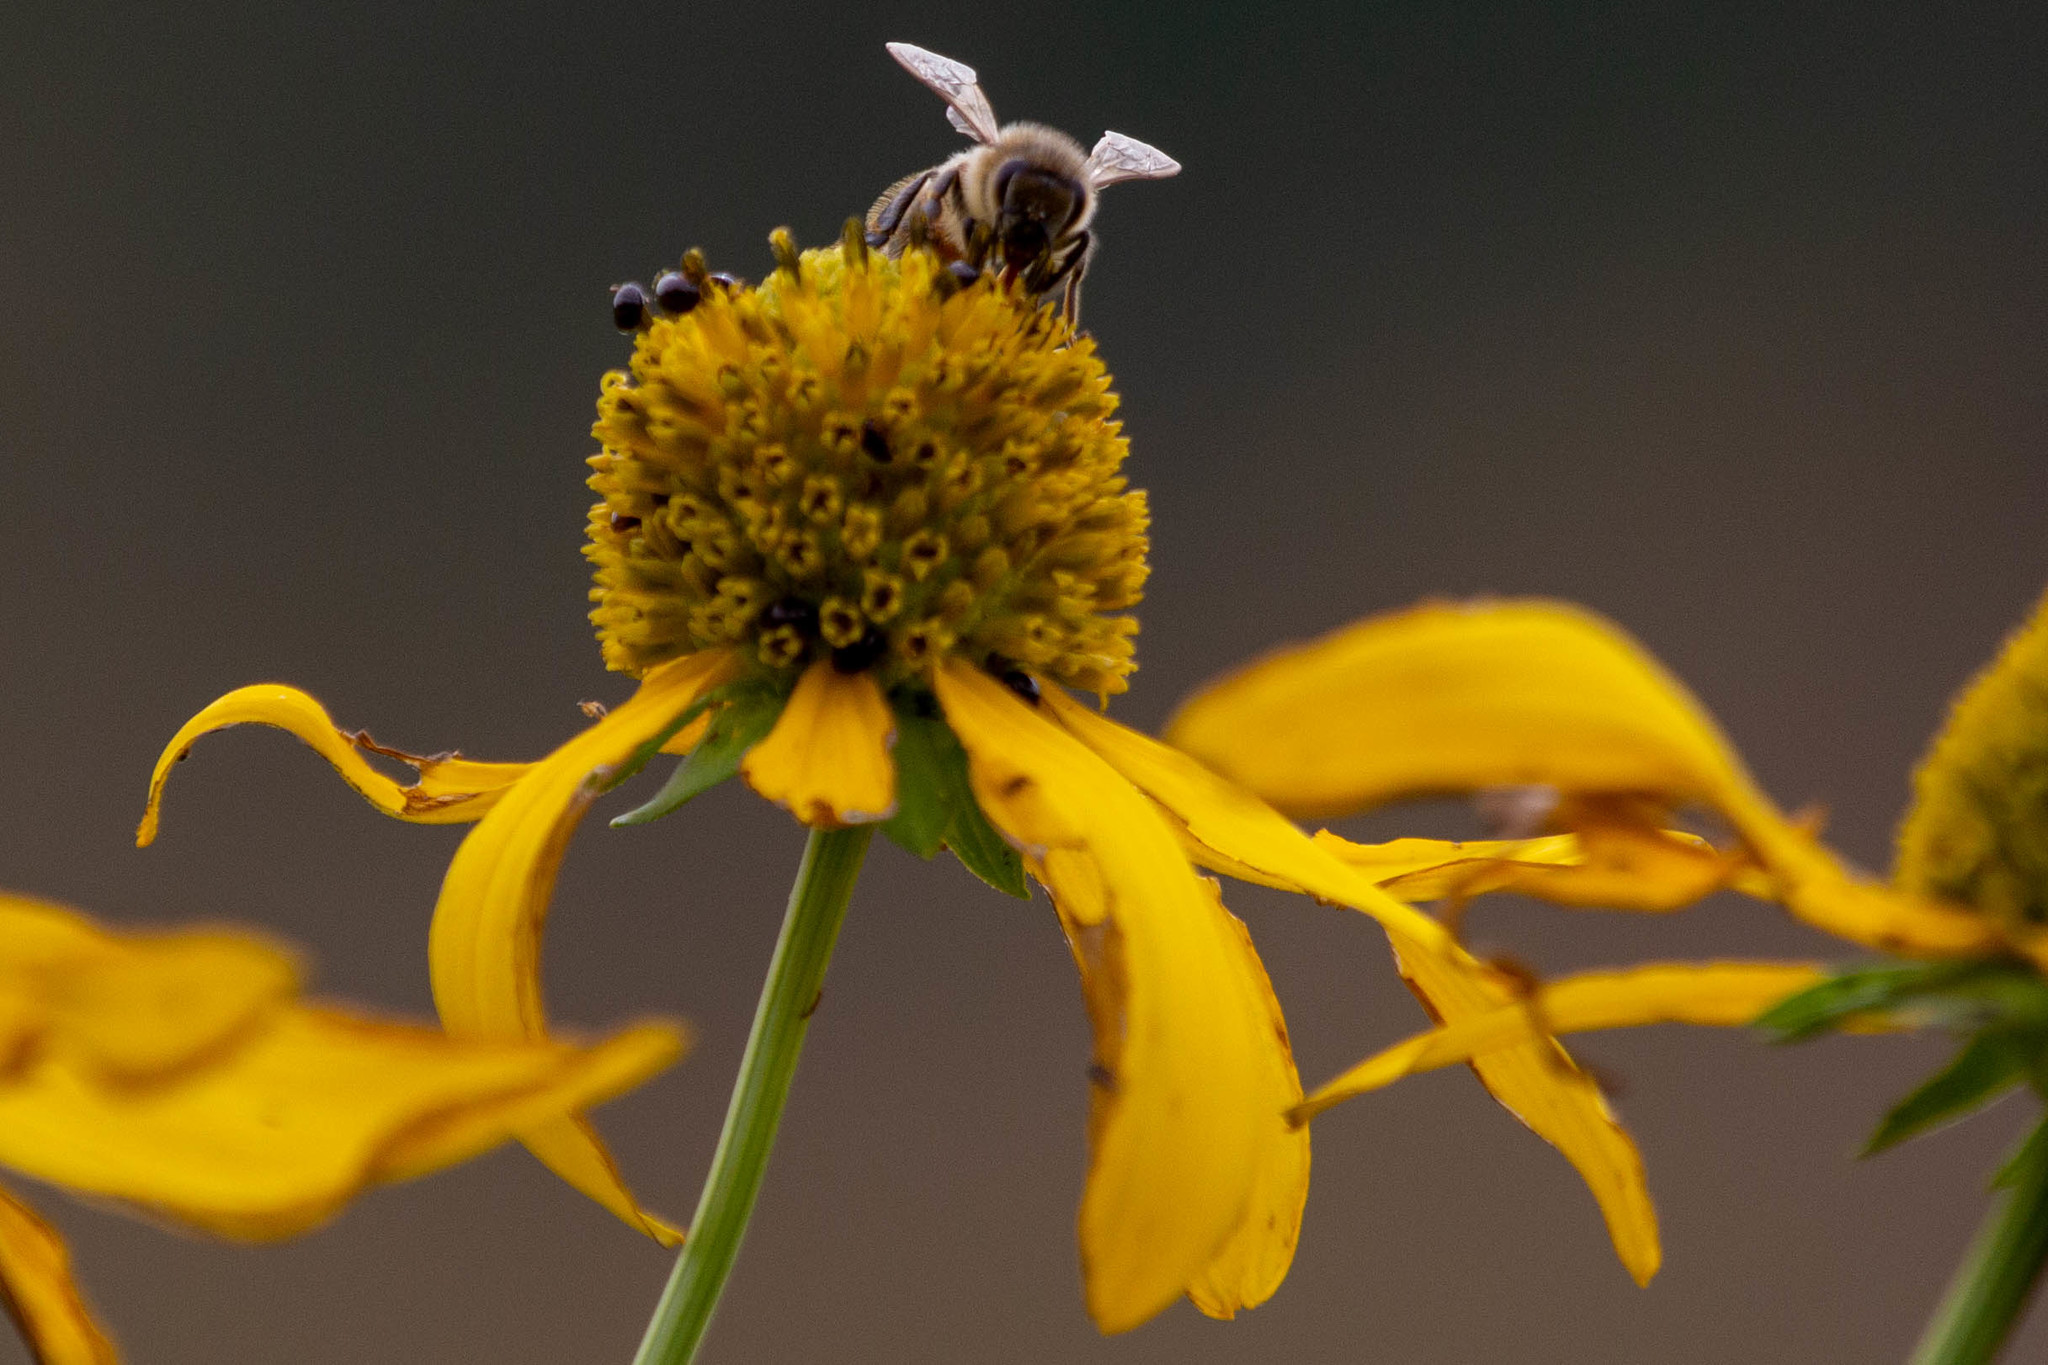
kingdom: Animalia
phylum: Arthropoda
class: Insecta
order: Hymenoptera
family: Apidae
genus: Apis
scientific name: Apis mellifera
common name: Honey bee
